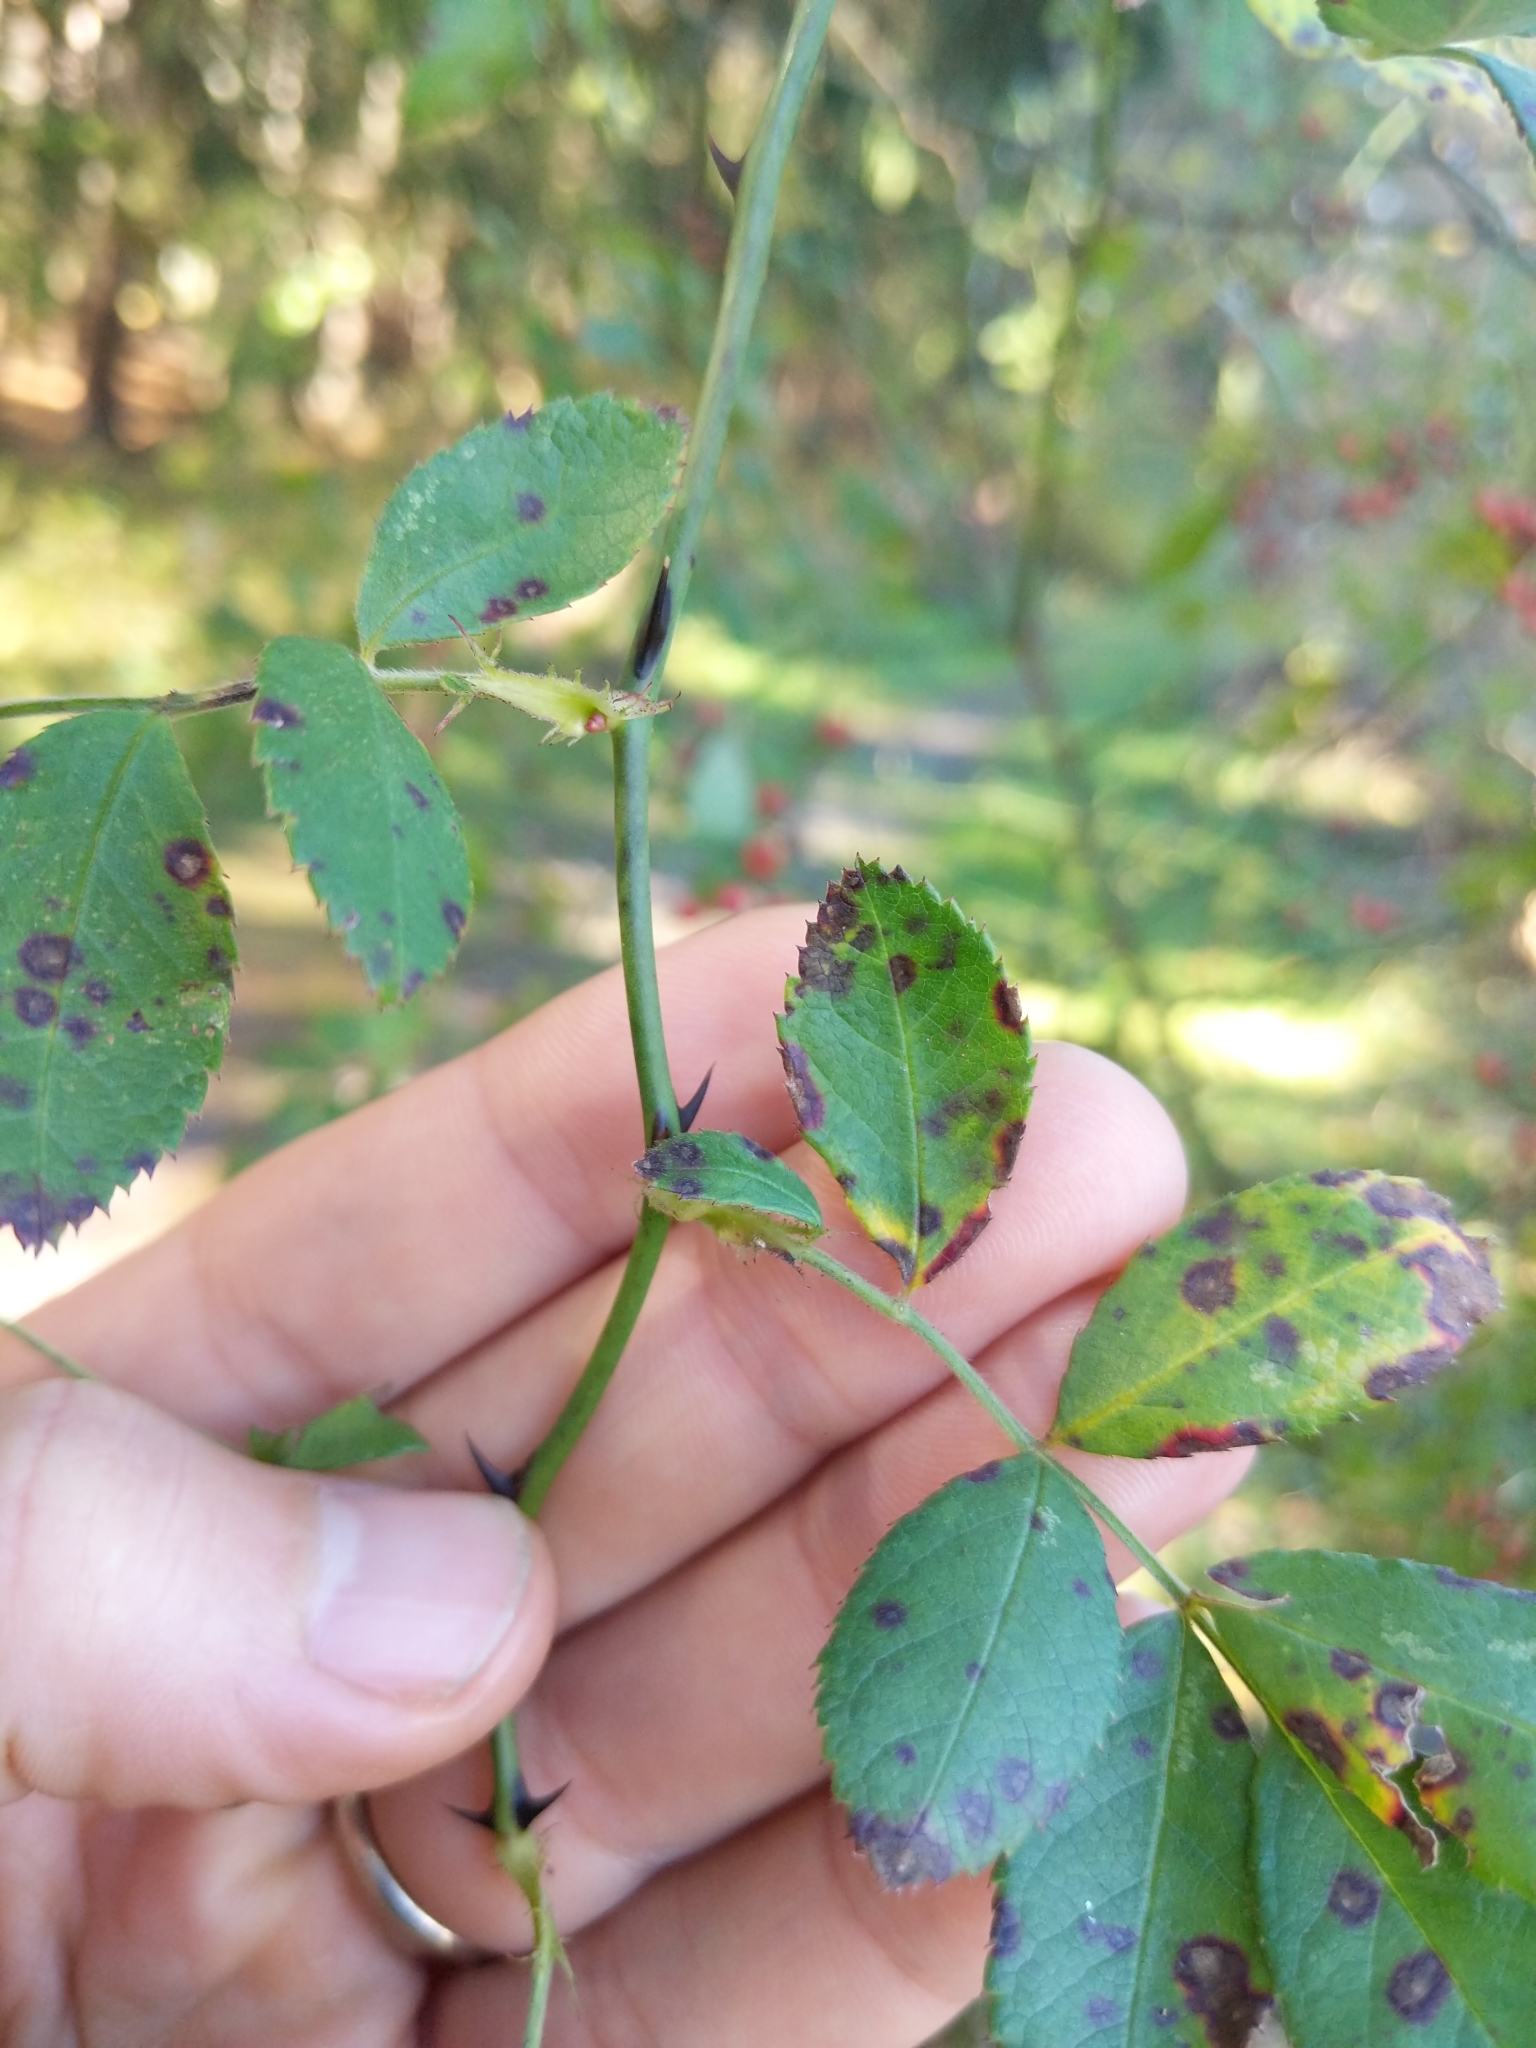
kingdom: Plantae
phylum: Tracheophyta
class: Magnoliopsida
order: Rosales
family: Rosaceae
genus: Rosa
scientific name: Rosa multiflora
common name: Multiflora rose
